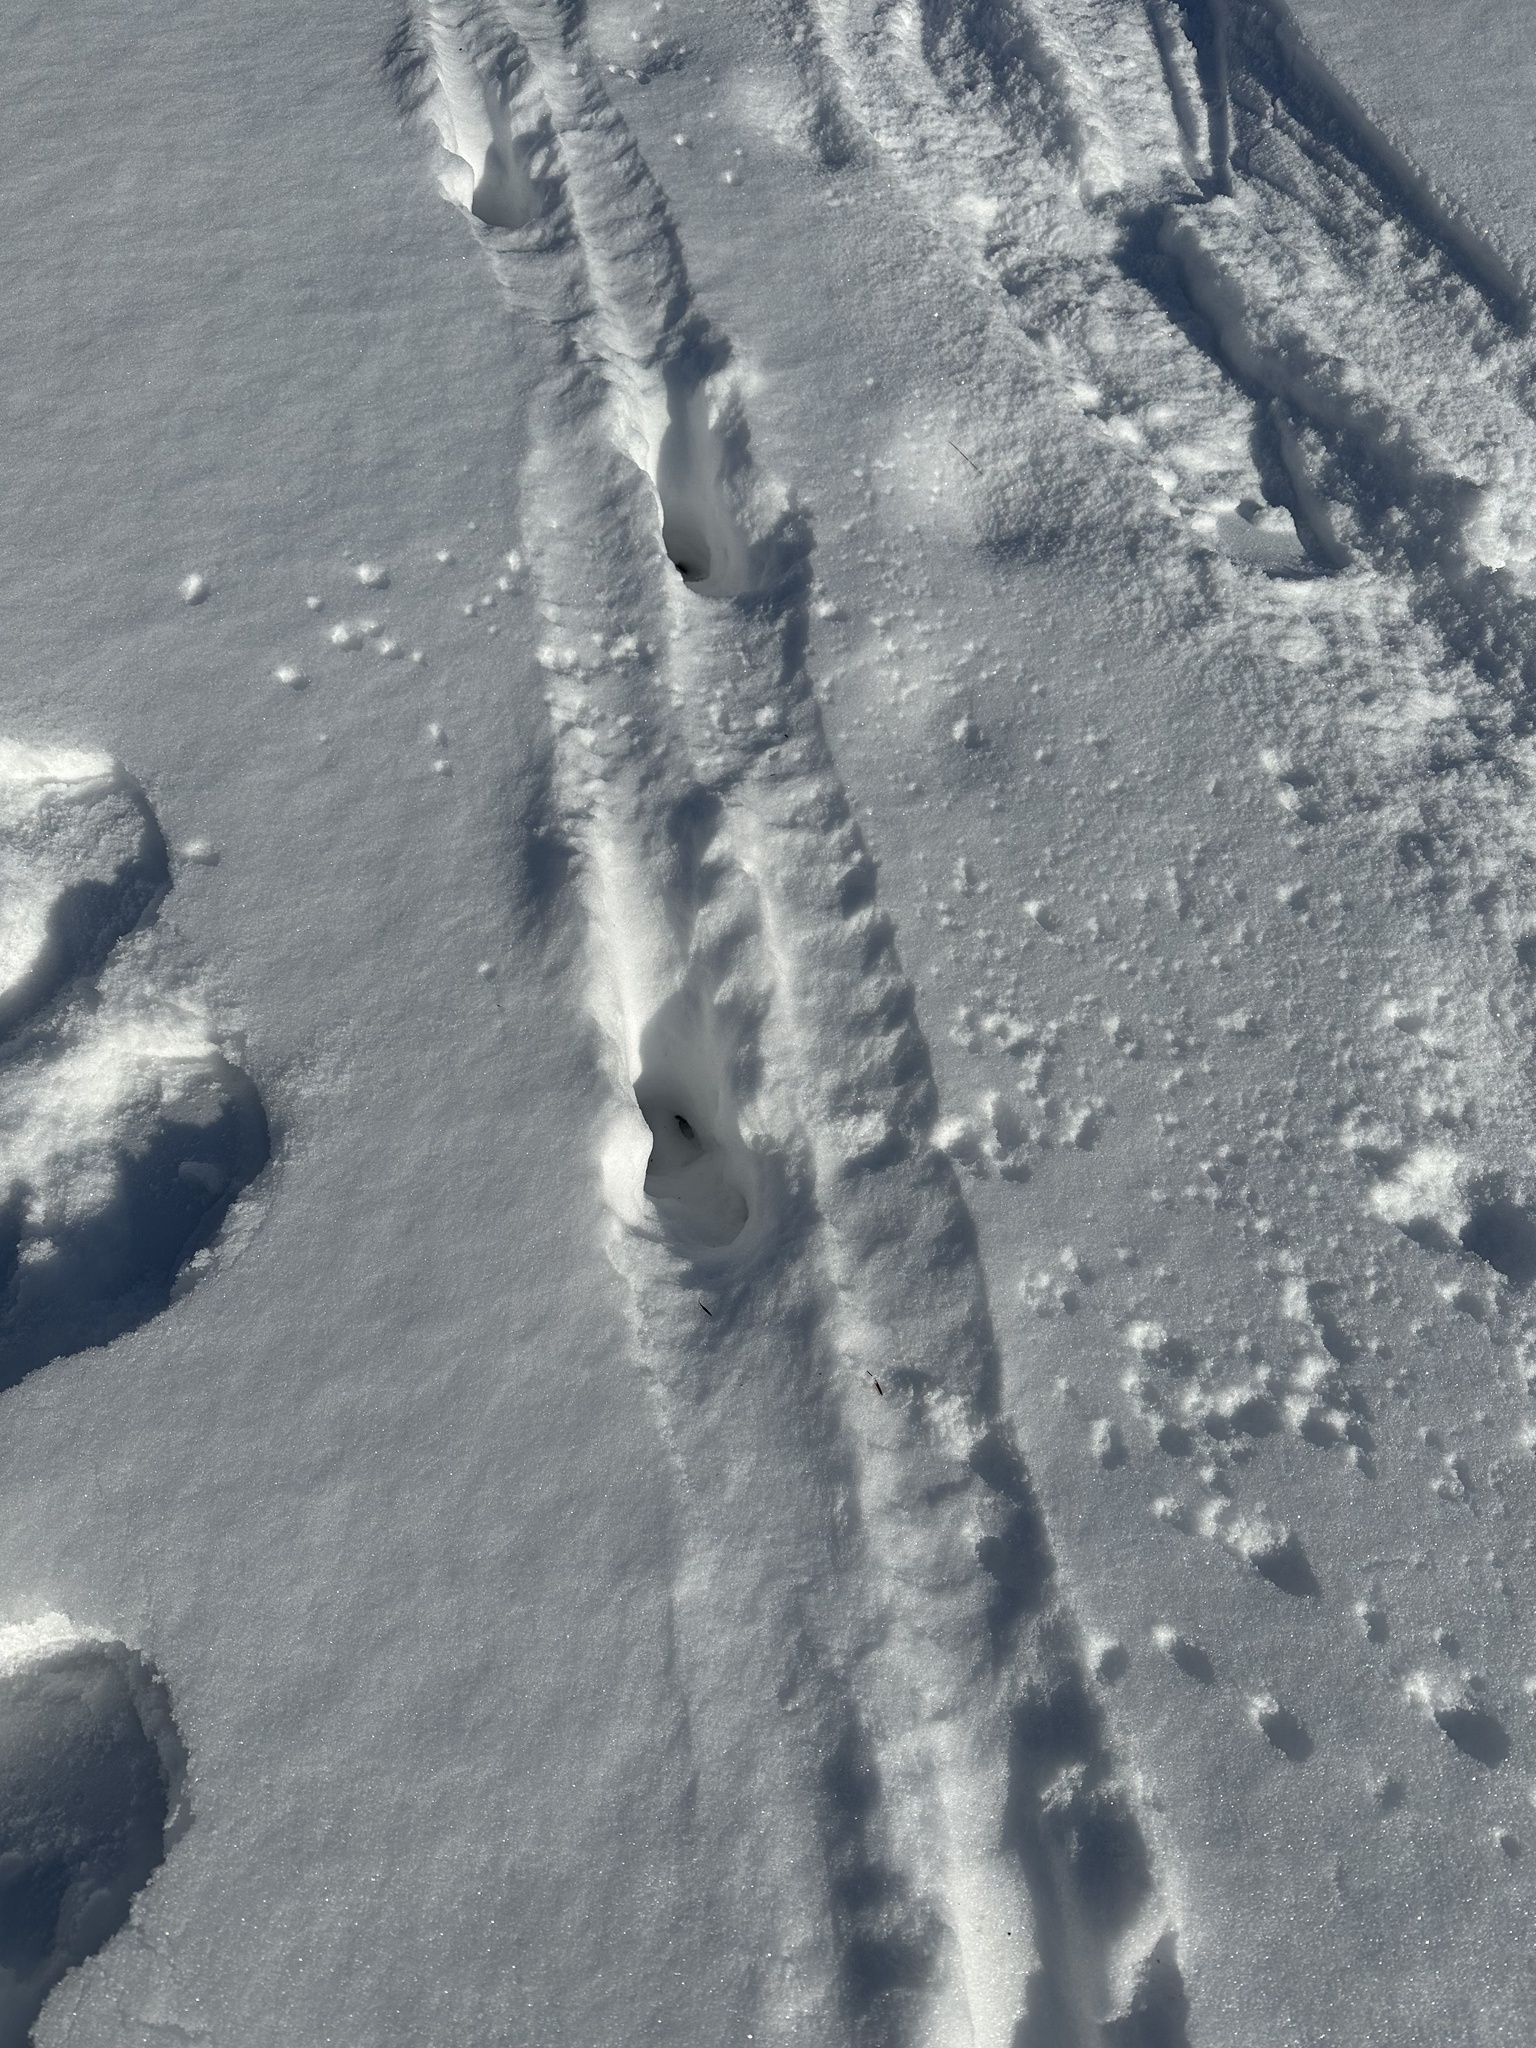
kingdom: Animalia
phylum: Chordata
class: Mammalia
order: Artiodactyla
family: Cervidae
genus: Odocoileus
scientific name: Odocoileus virginianus
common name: White-tailed deer
